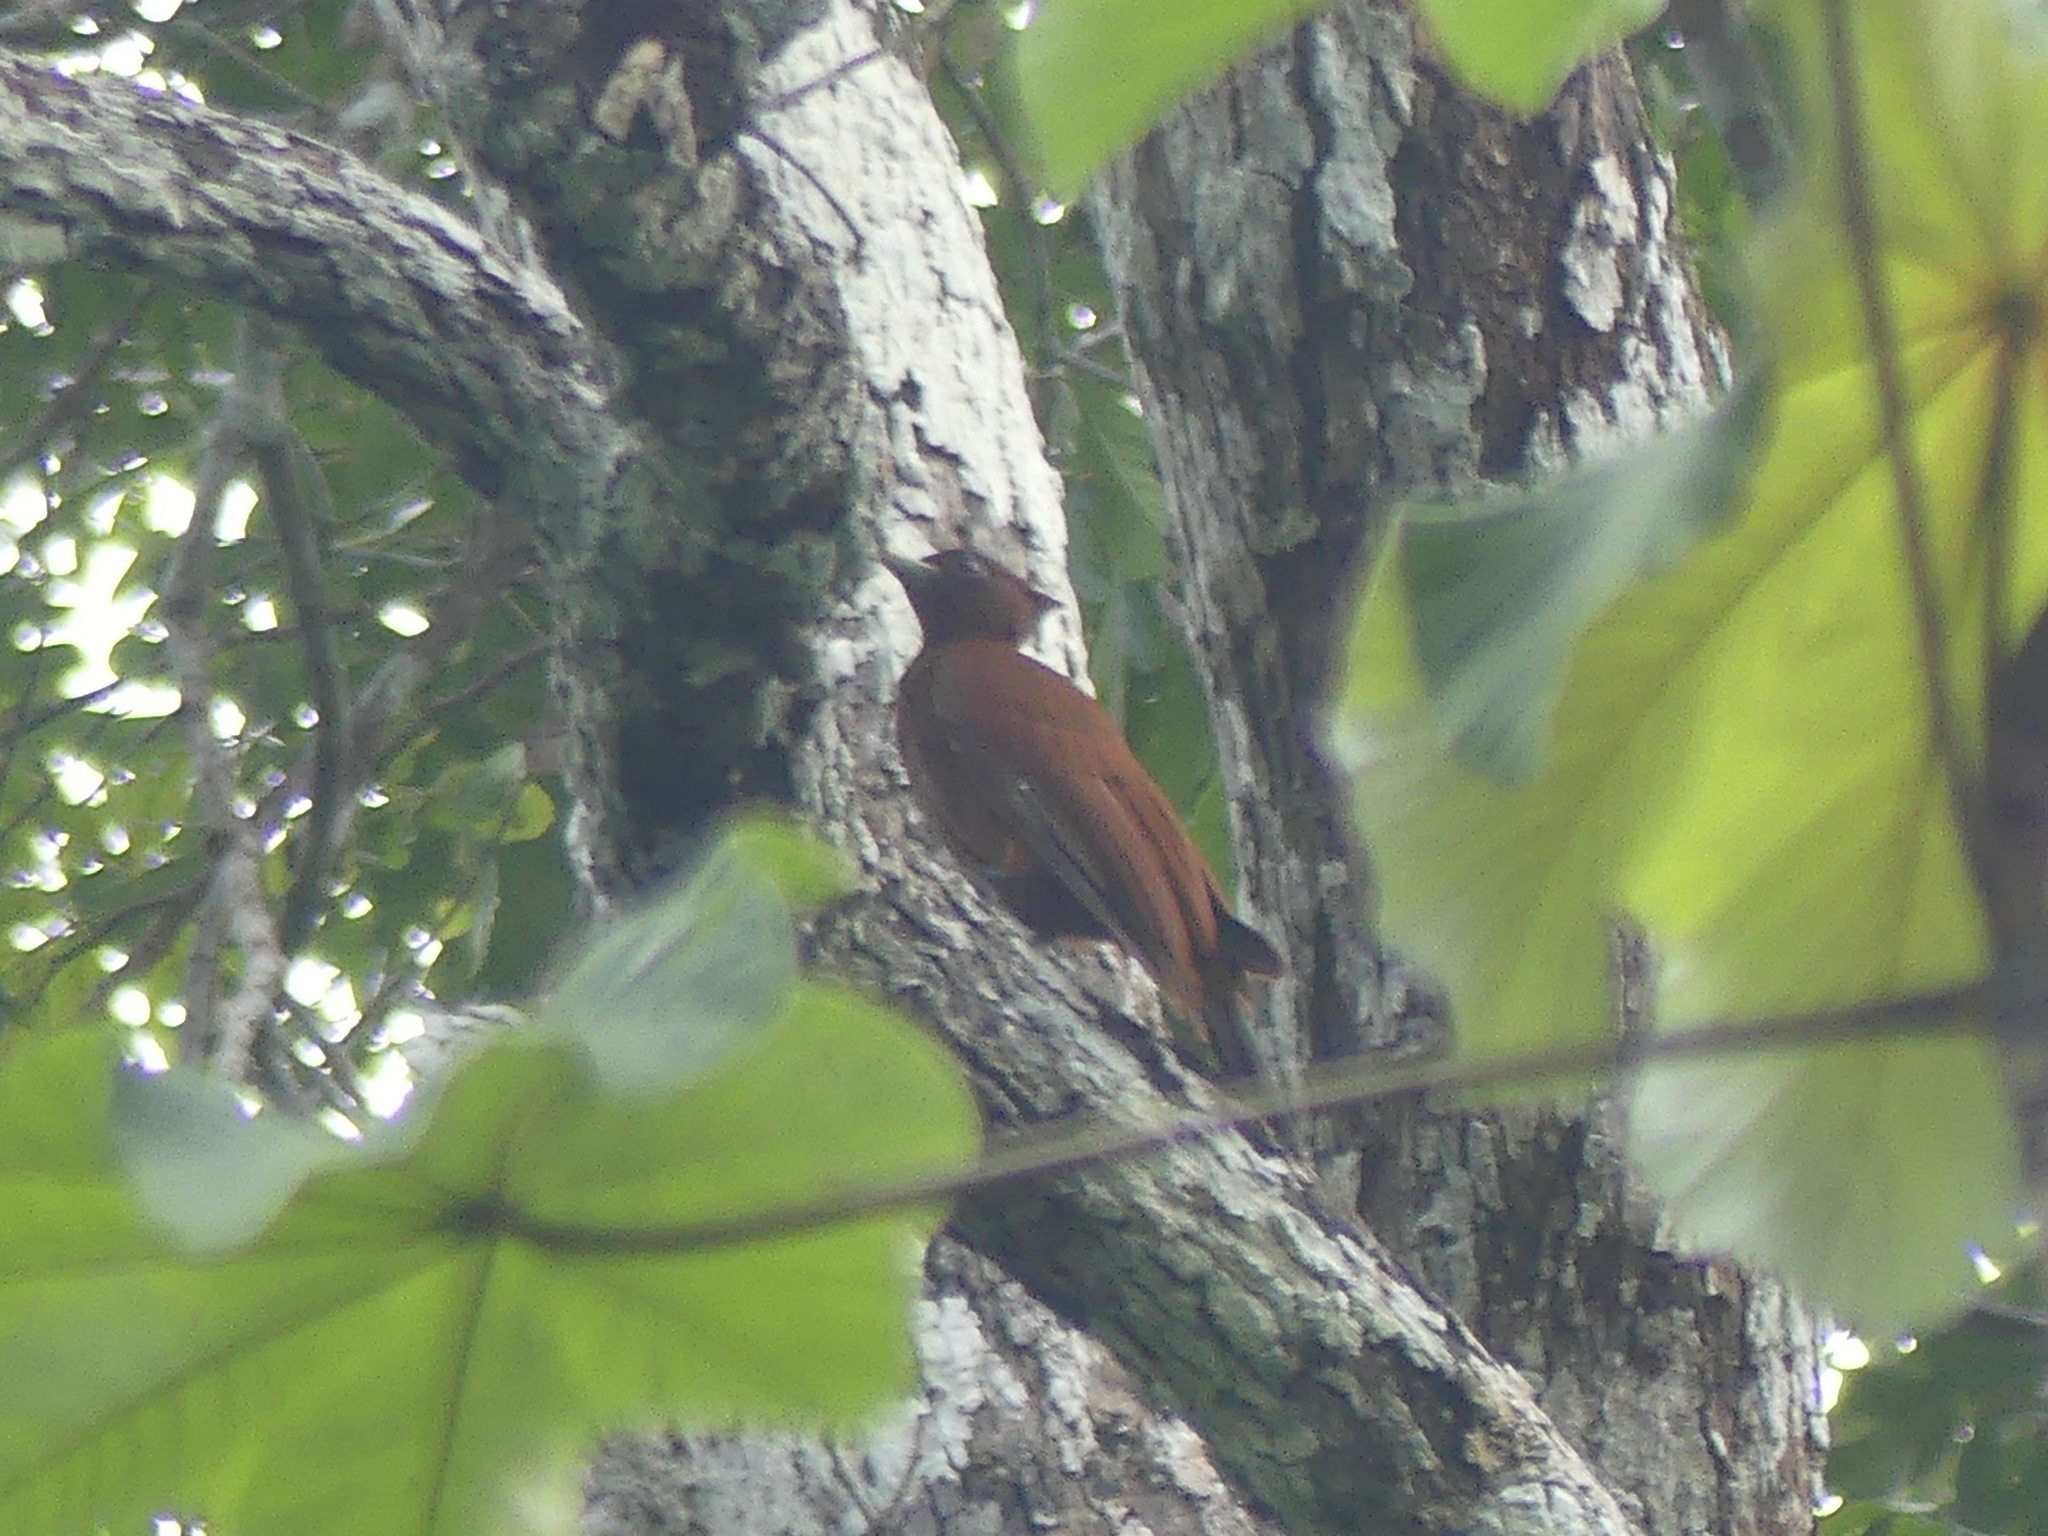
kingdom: Animalia
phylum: Chordata
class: Aves
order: Piciformes
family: Picidae
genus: Celeus
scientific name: Celeus elegans
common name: Chestnut woodpecker
